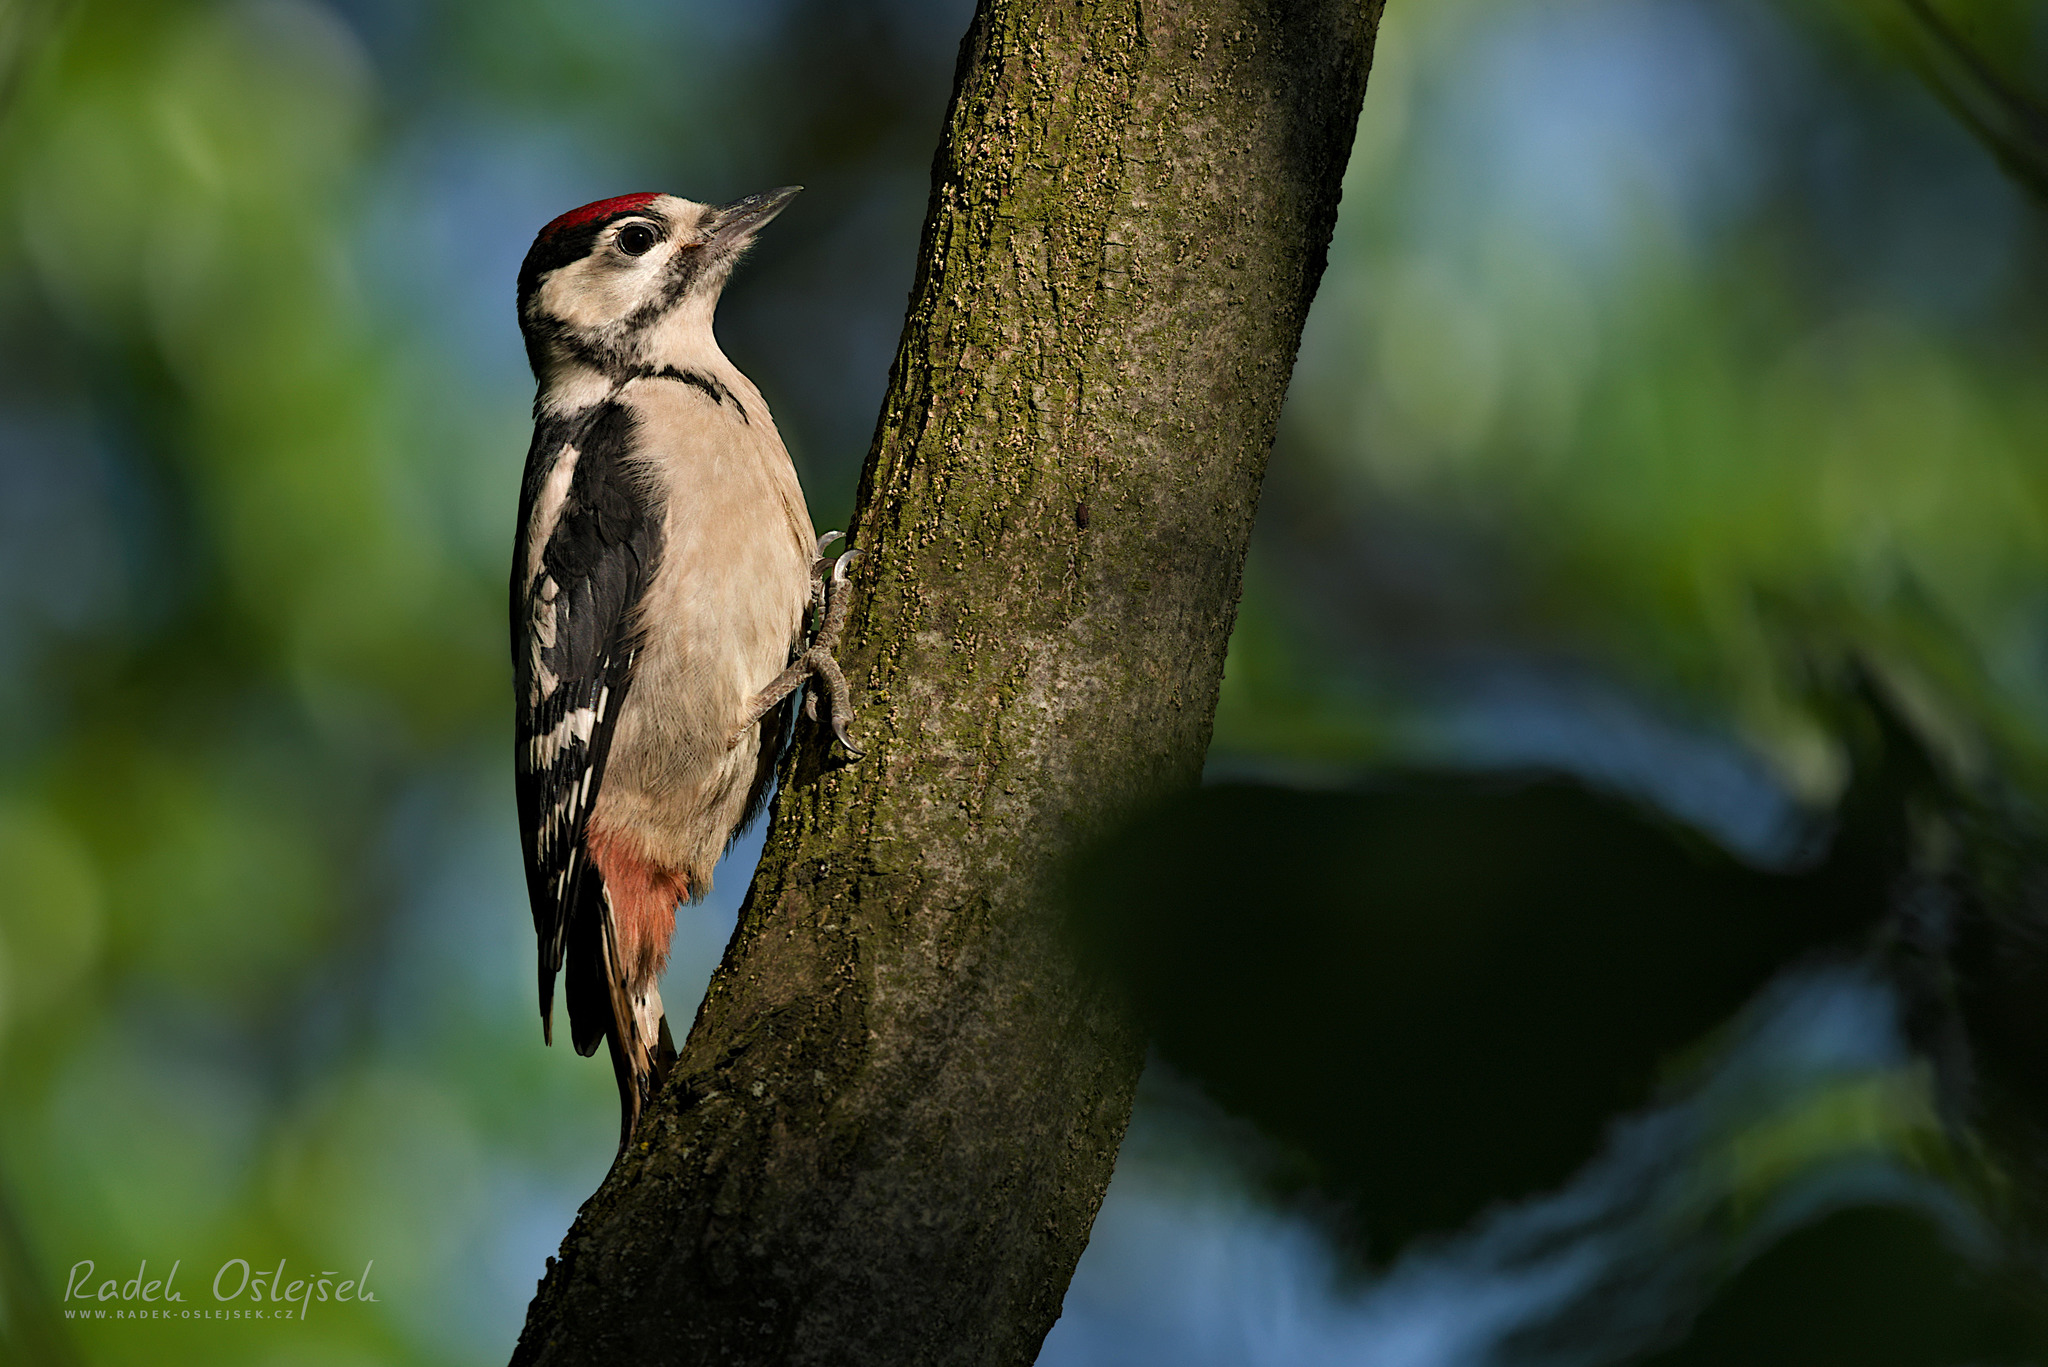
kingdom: Animalia
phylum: Chordata
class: Aves
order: Piciformes
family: Picidae
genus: Dendrocopos
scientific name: Dendrocopos major
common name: Great spotted woodpecker
